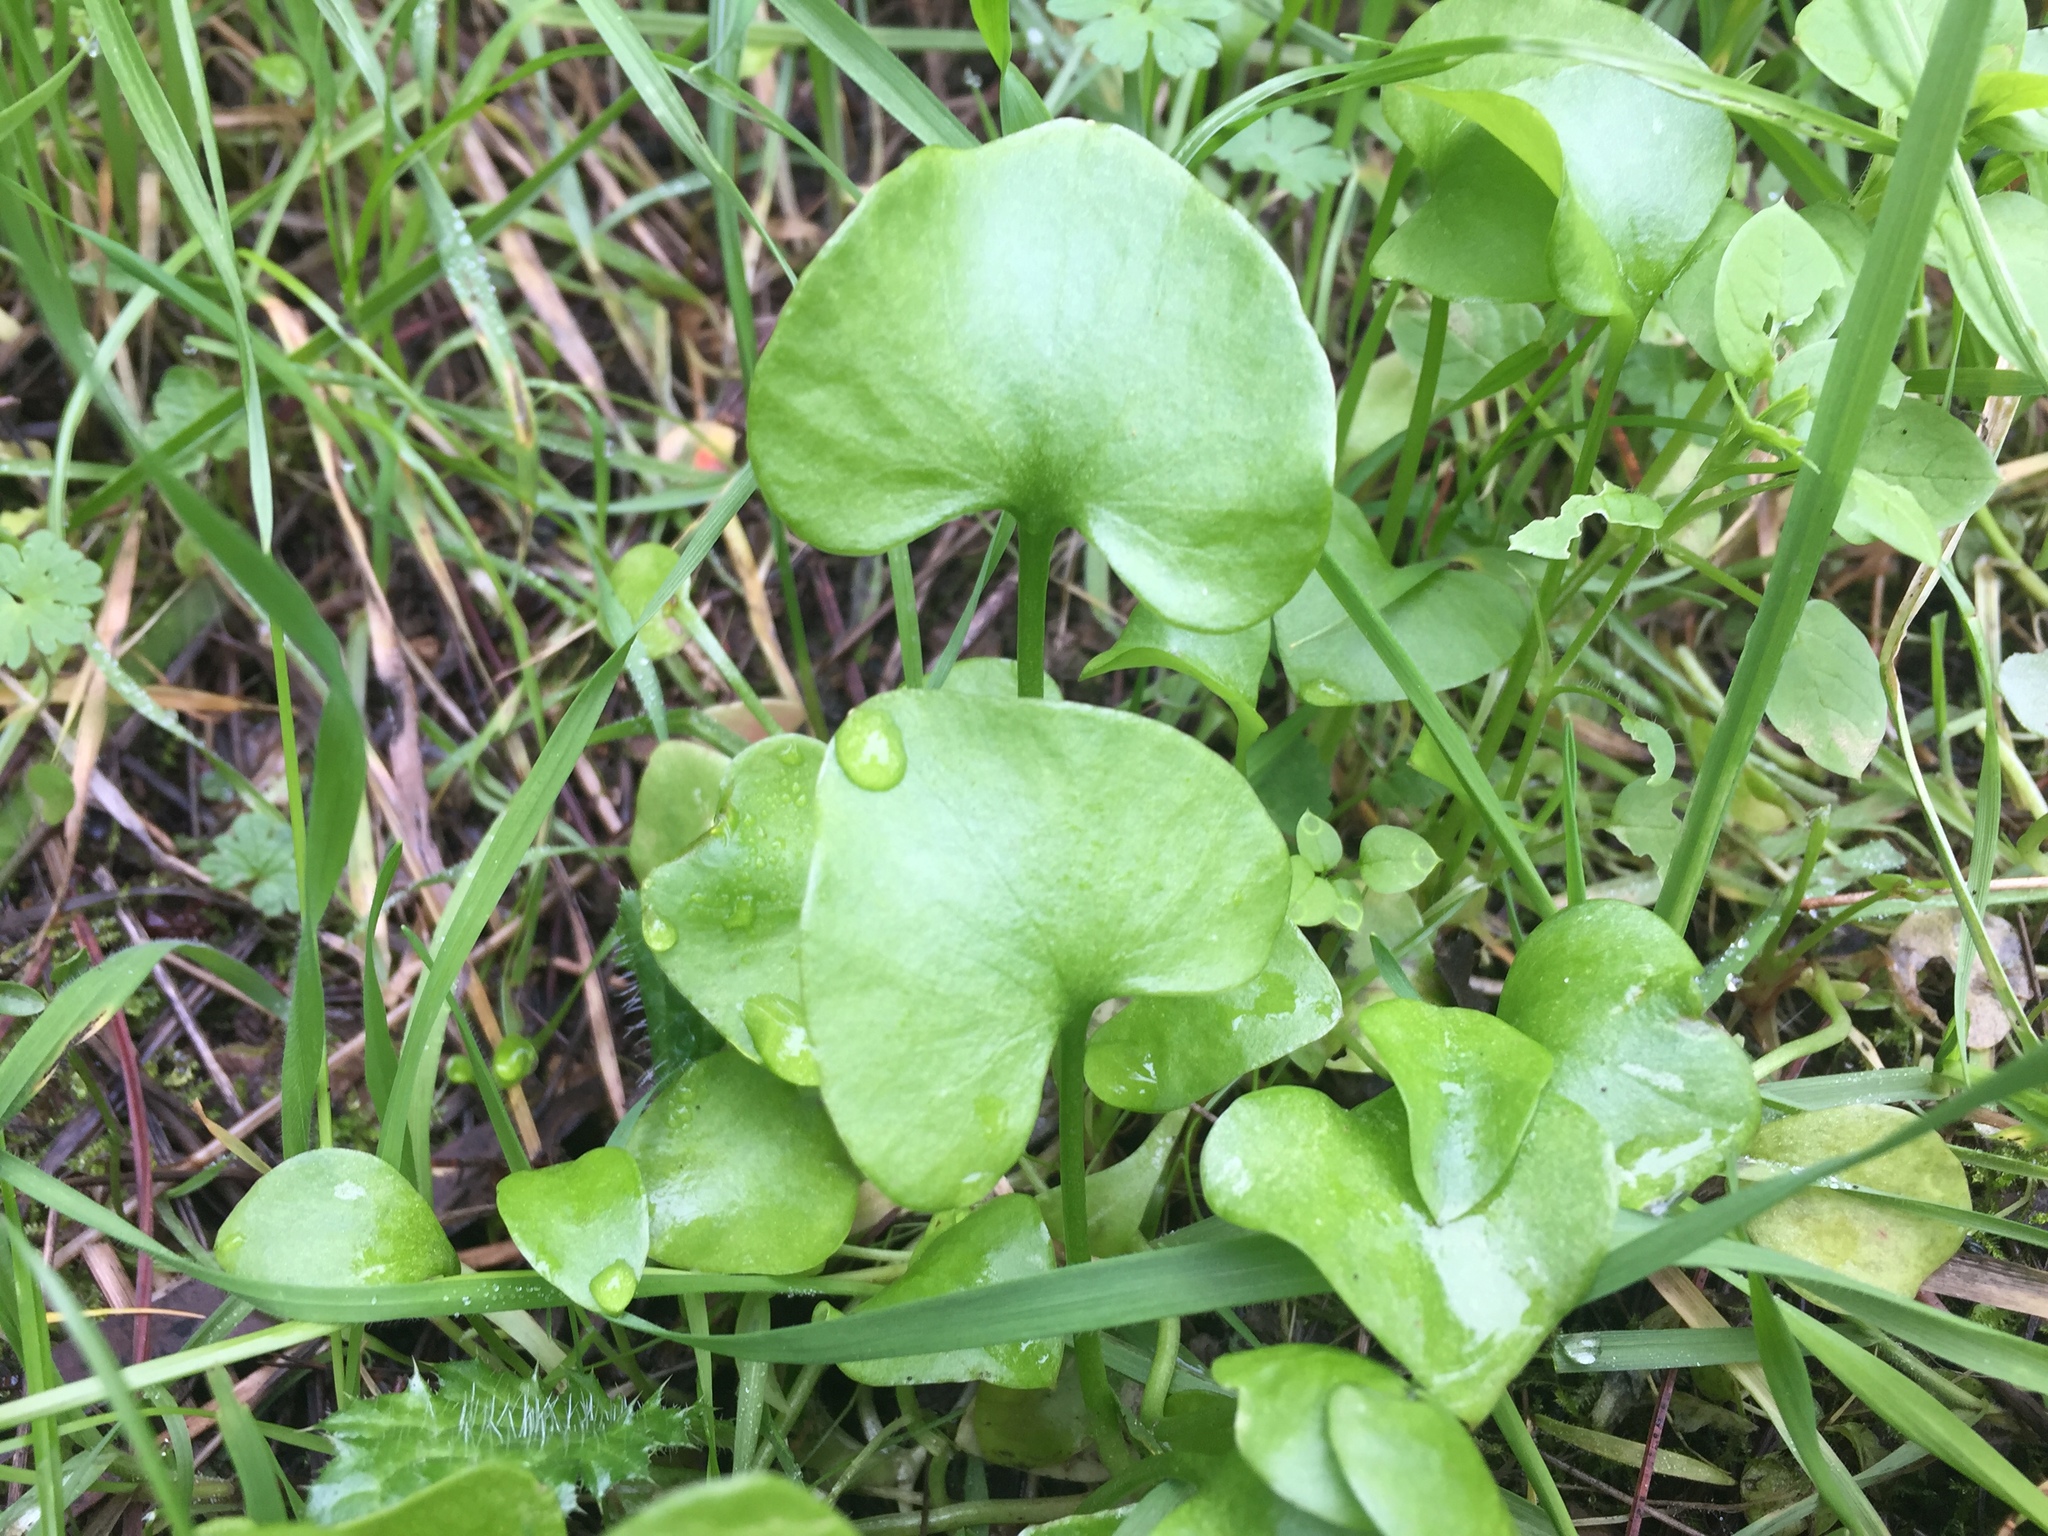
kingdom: Plantae
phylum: Tracheophyta
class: Magnoliopsida
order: Caryophyllales
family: Montiaceae
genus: Claytonia
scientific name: Claytonia perfoliata
